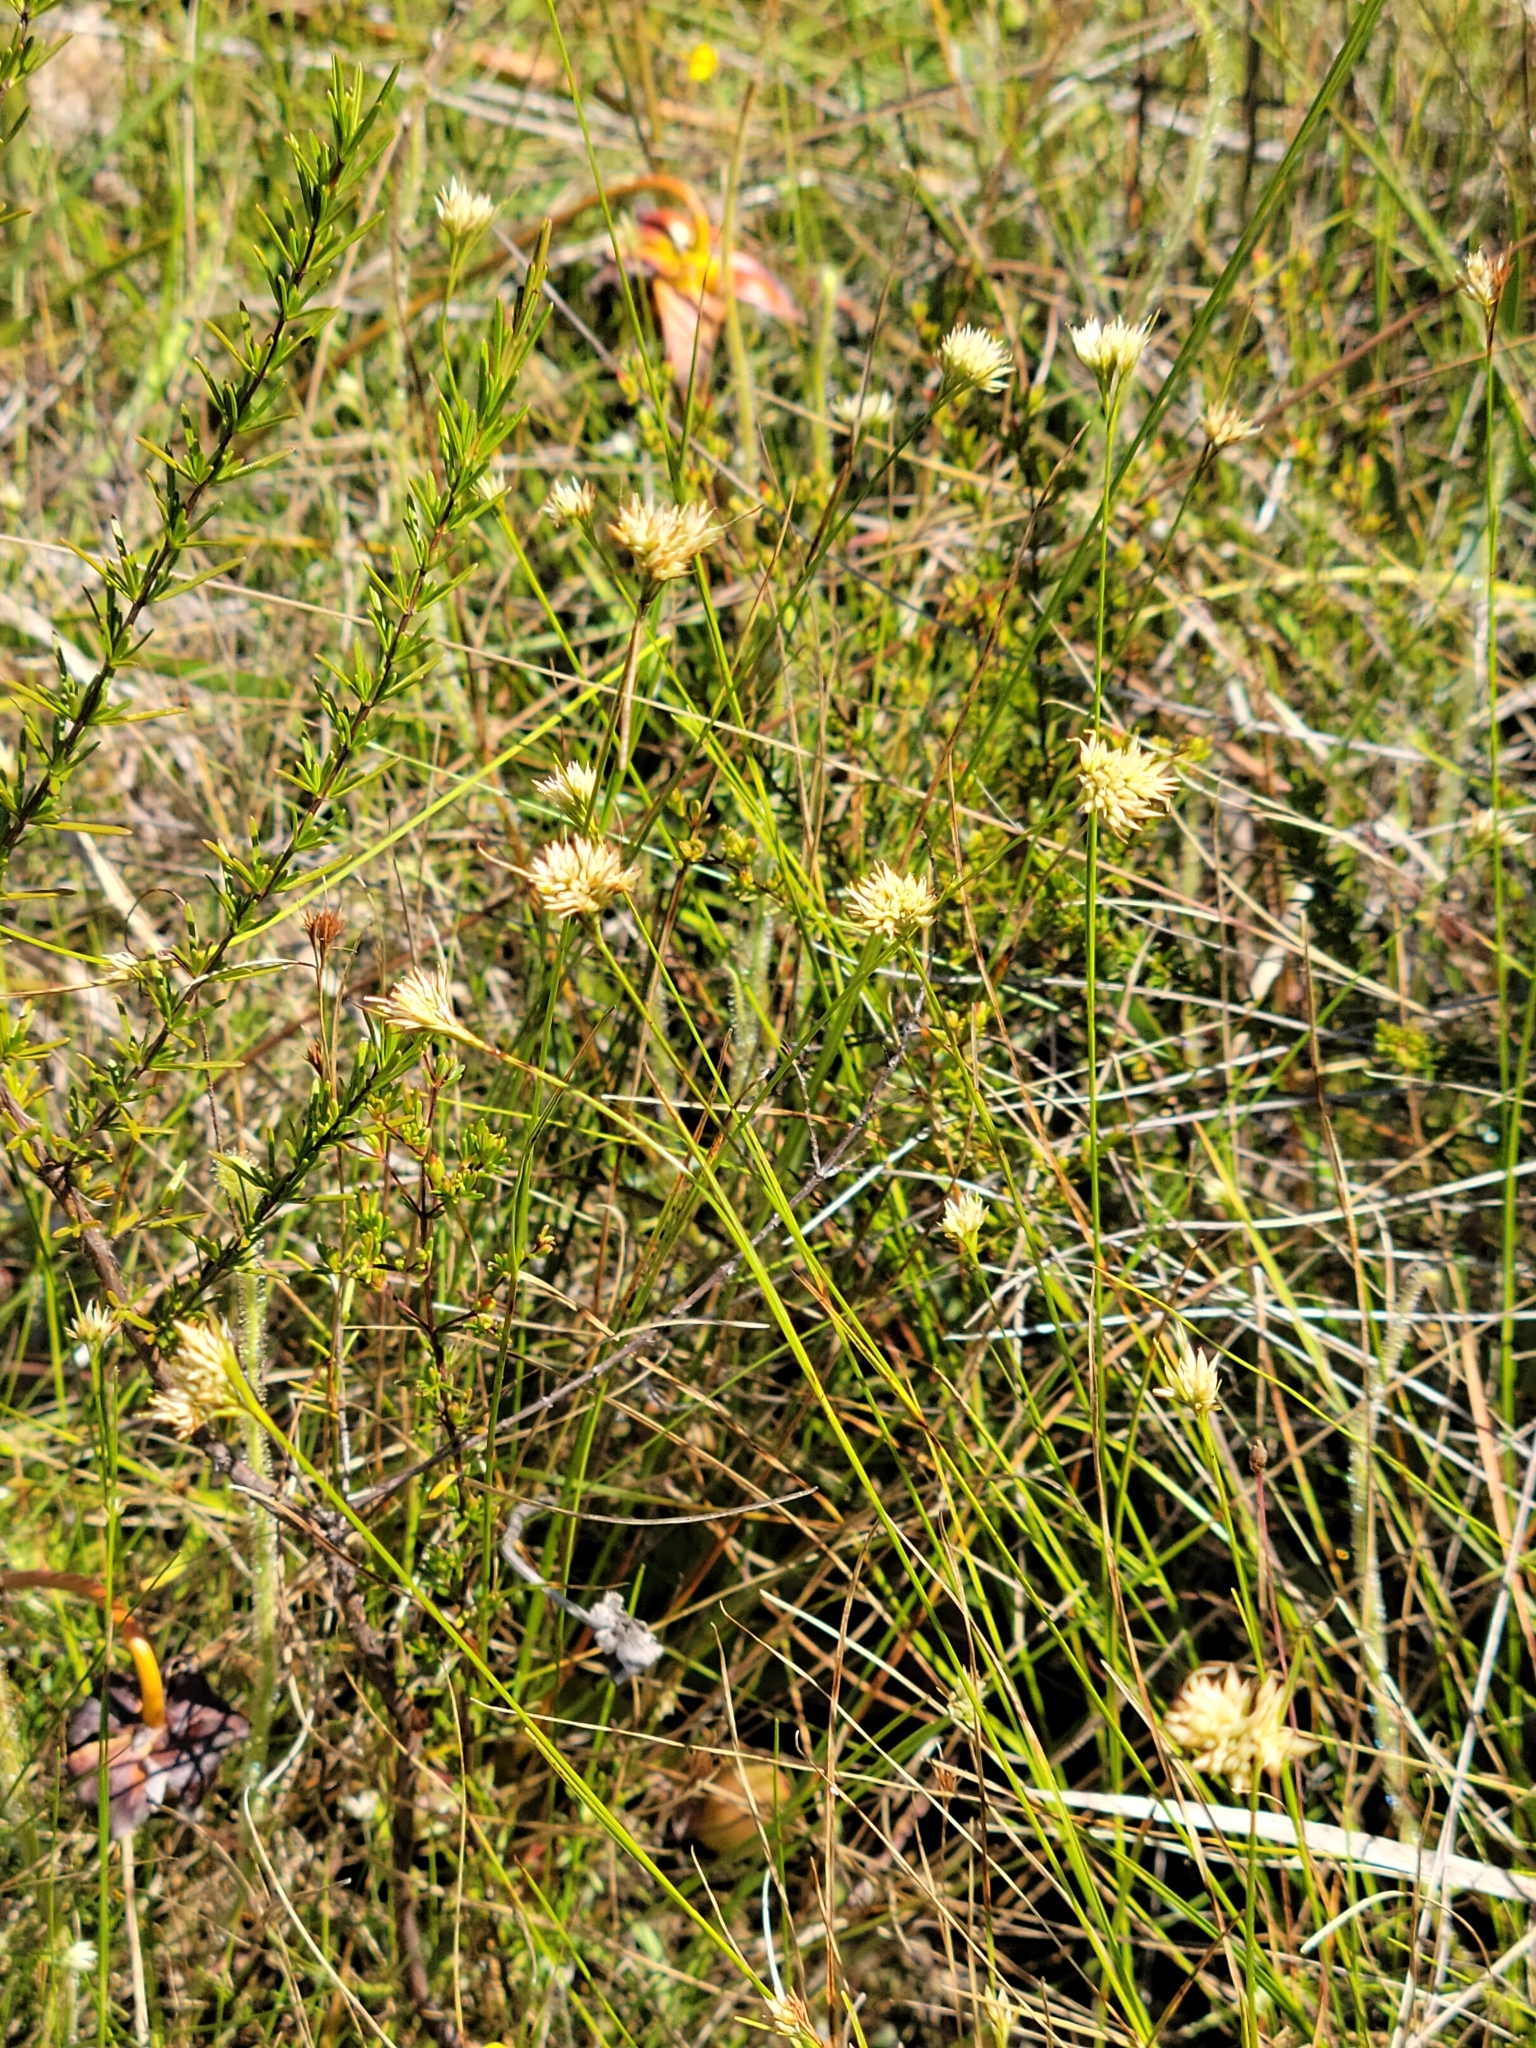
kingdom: Plantae
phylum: Tracheophyta
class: Liliopsida
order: Poales
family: Cyperaceae
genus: Rhynchospora
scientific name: Rhynchospora macra
